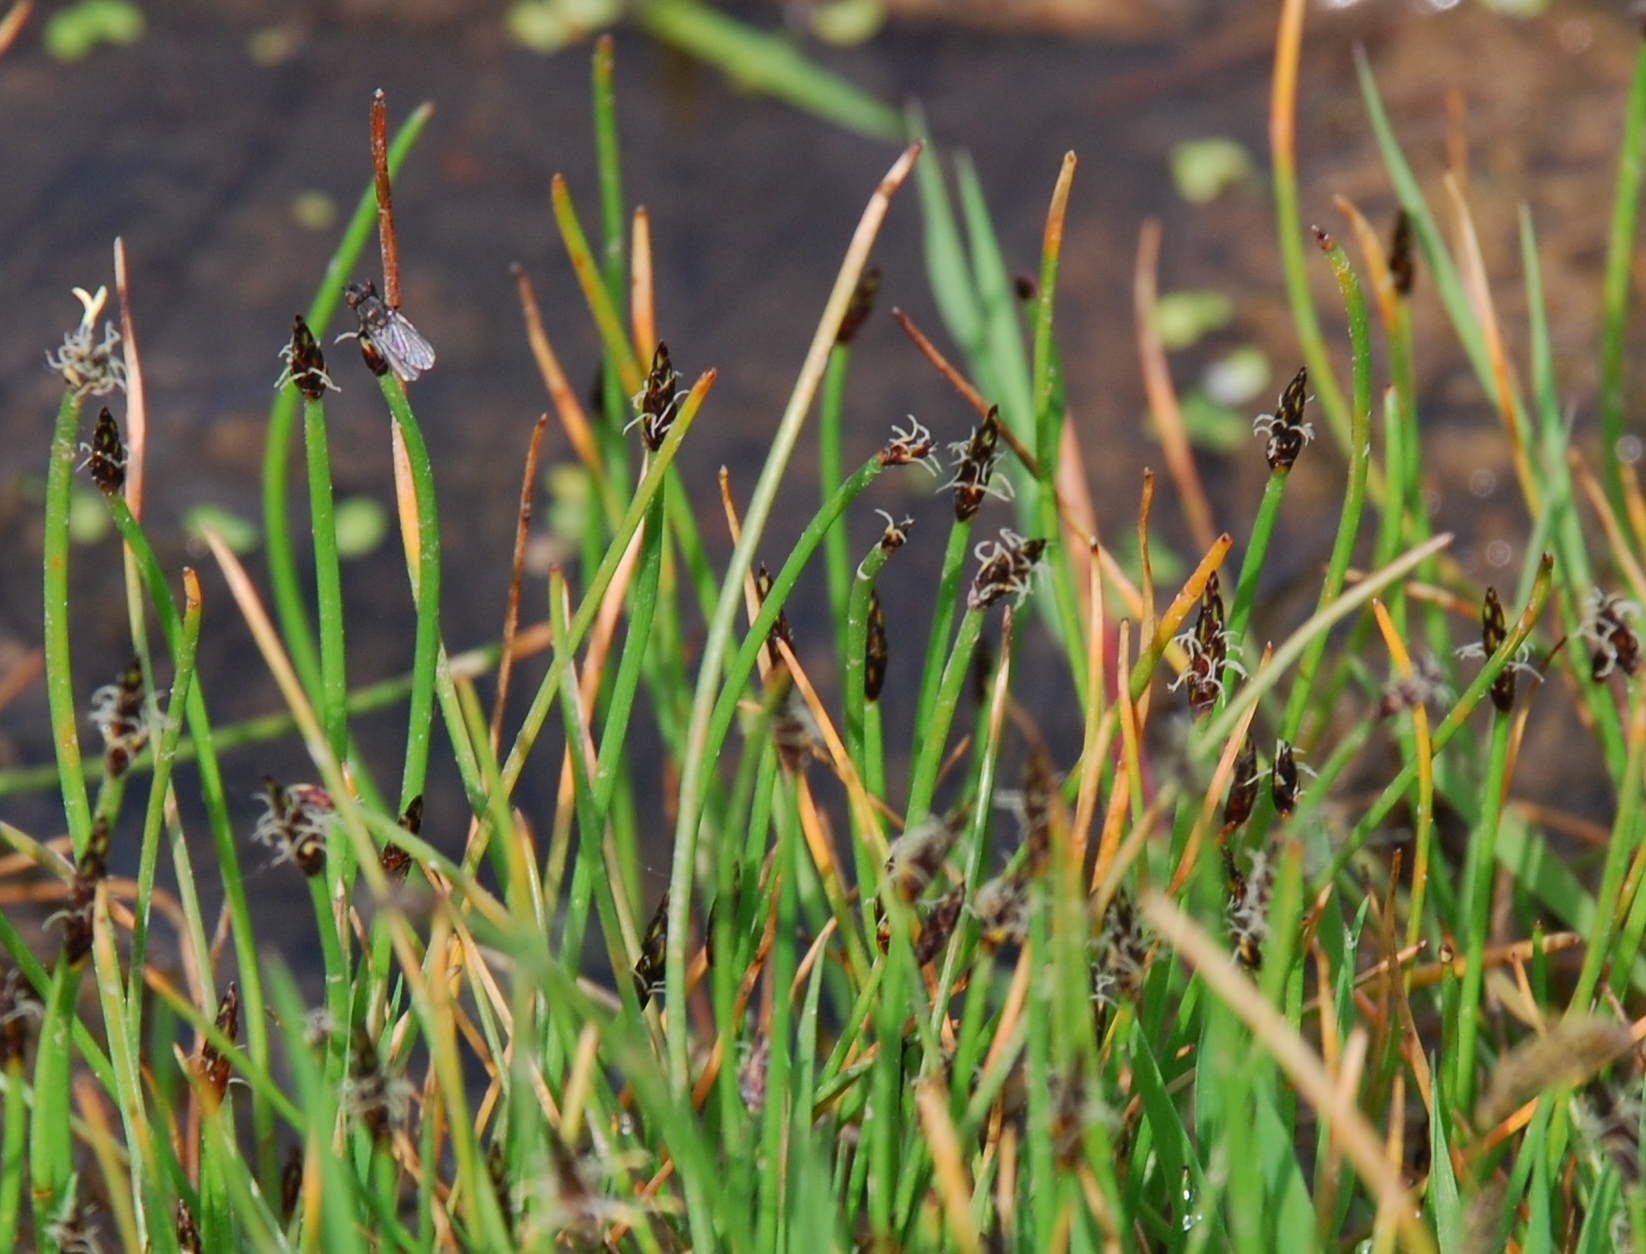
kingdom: Plantae
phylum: Tracheophyta
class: Liliopsida
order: Poales
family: Cyperaceae
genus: Eleocharis
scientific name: Eleocharis uniglumis
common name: Slender spike-rush
